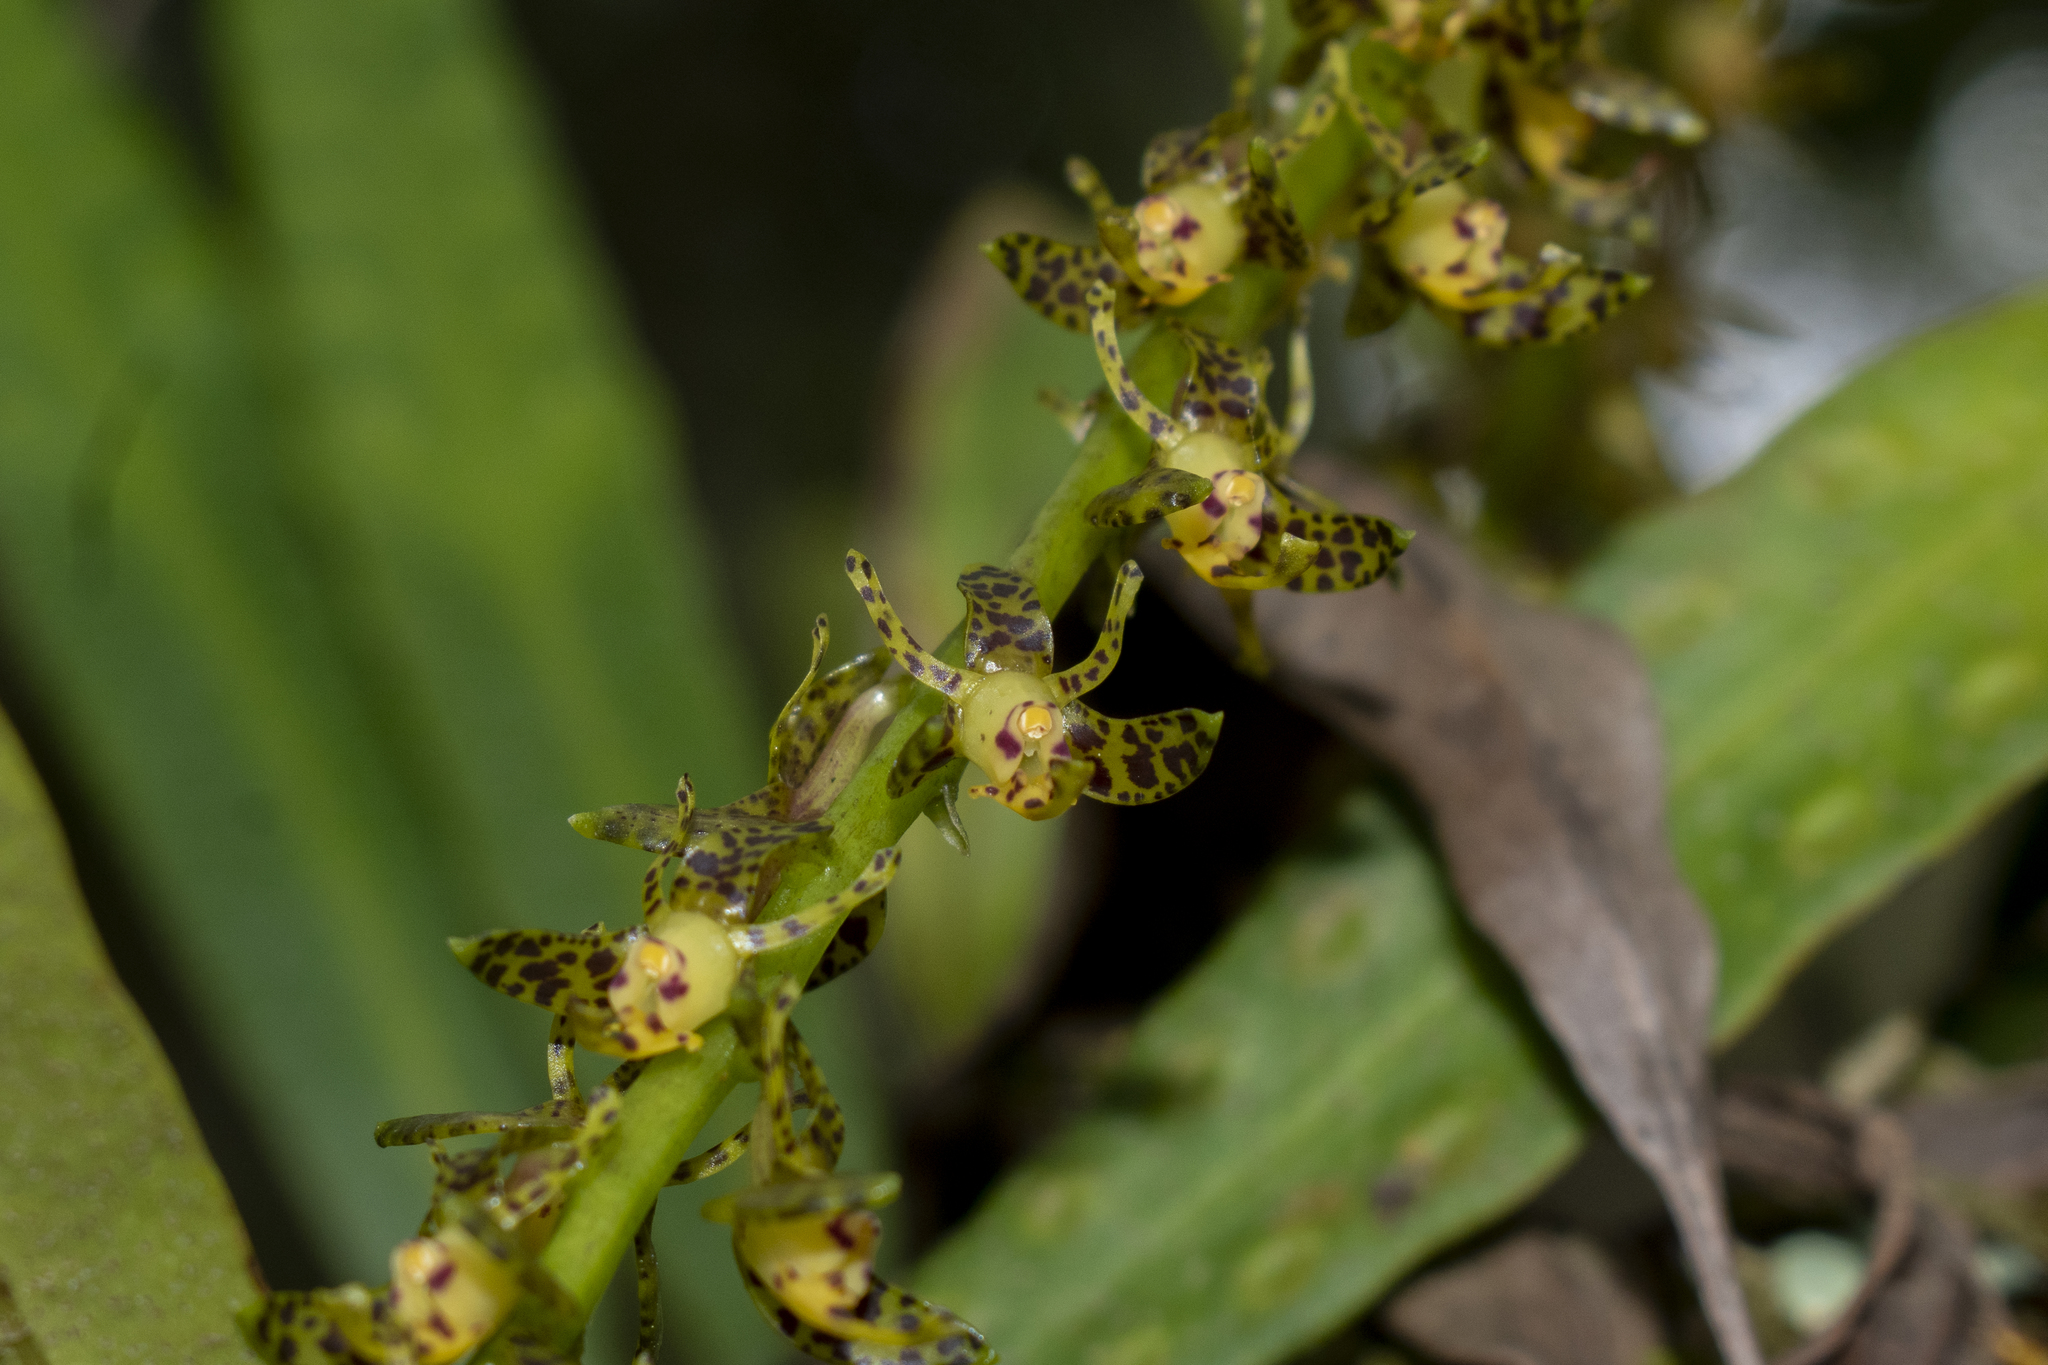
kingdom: Plantae
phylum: Tracheophyta
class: Liliopsida
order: Asparagales
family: Orchidaceae
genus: Epidendrum
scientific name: Epidendrum leopardihamatum
